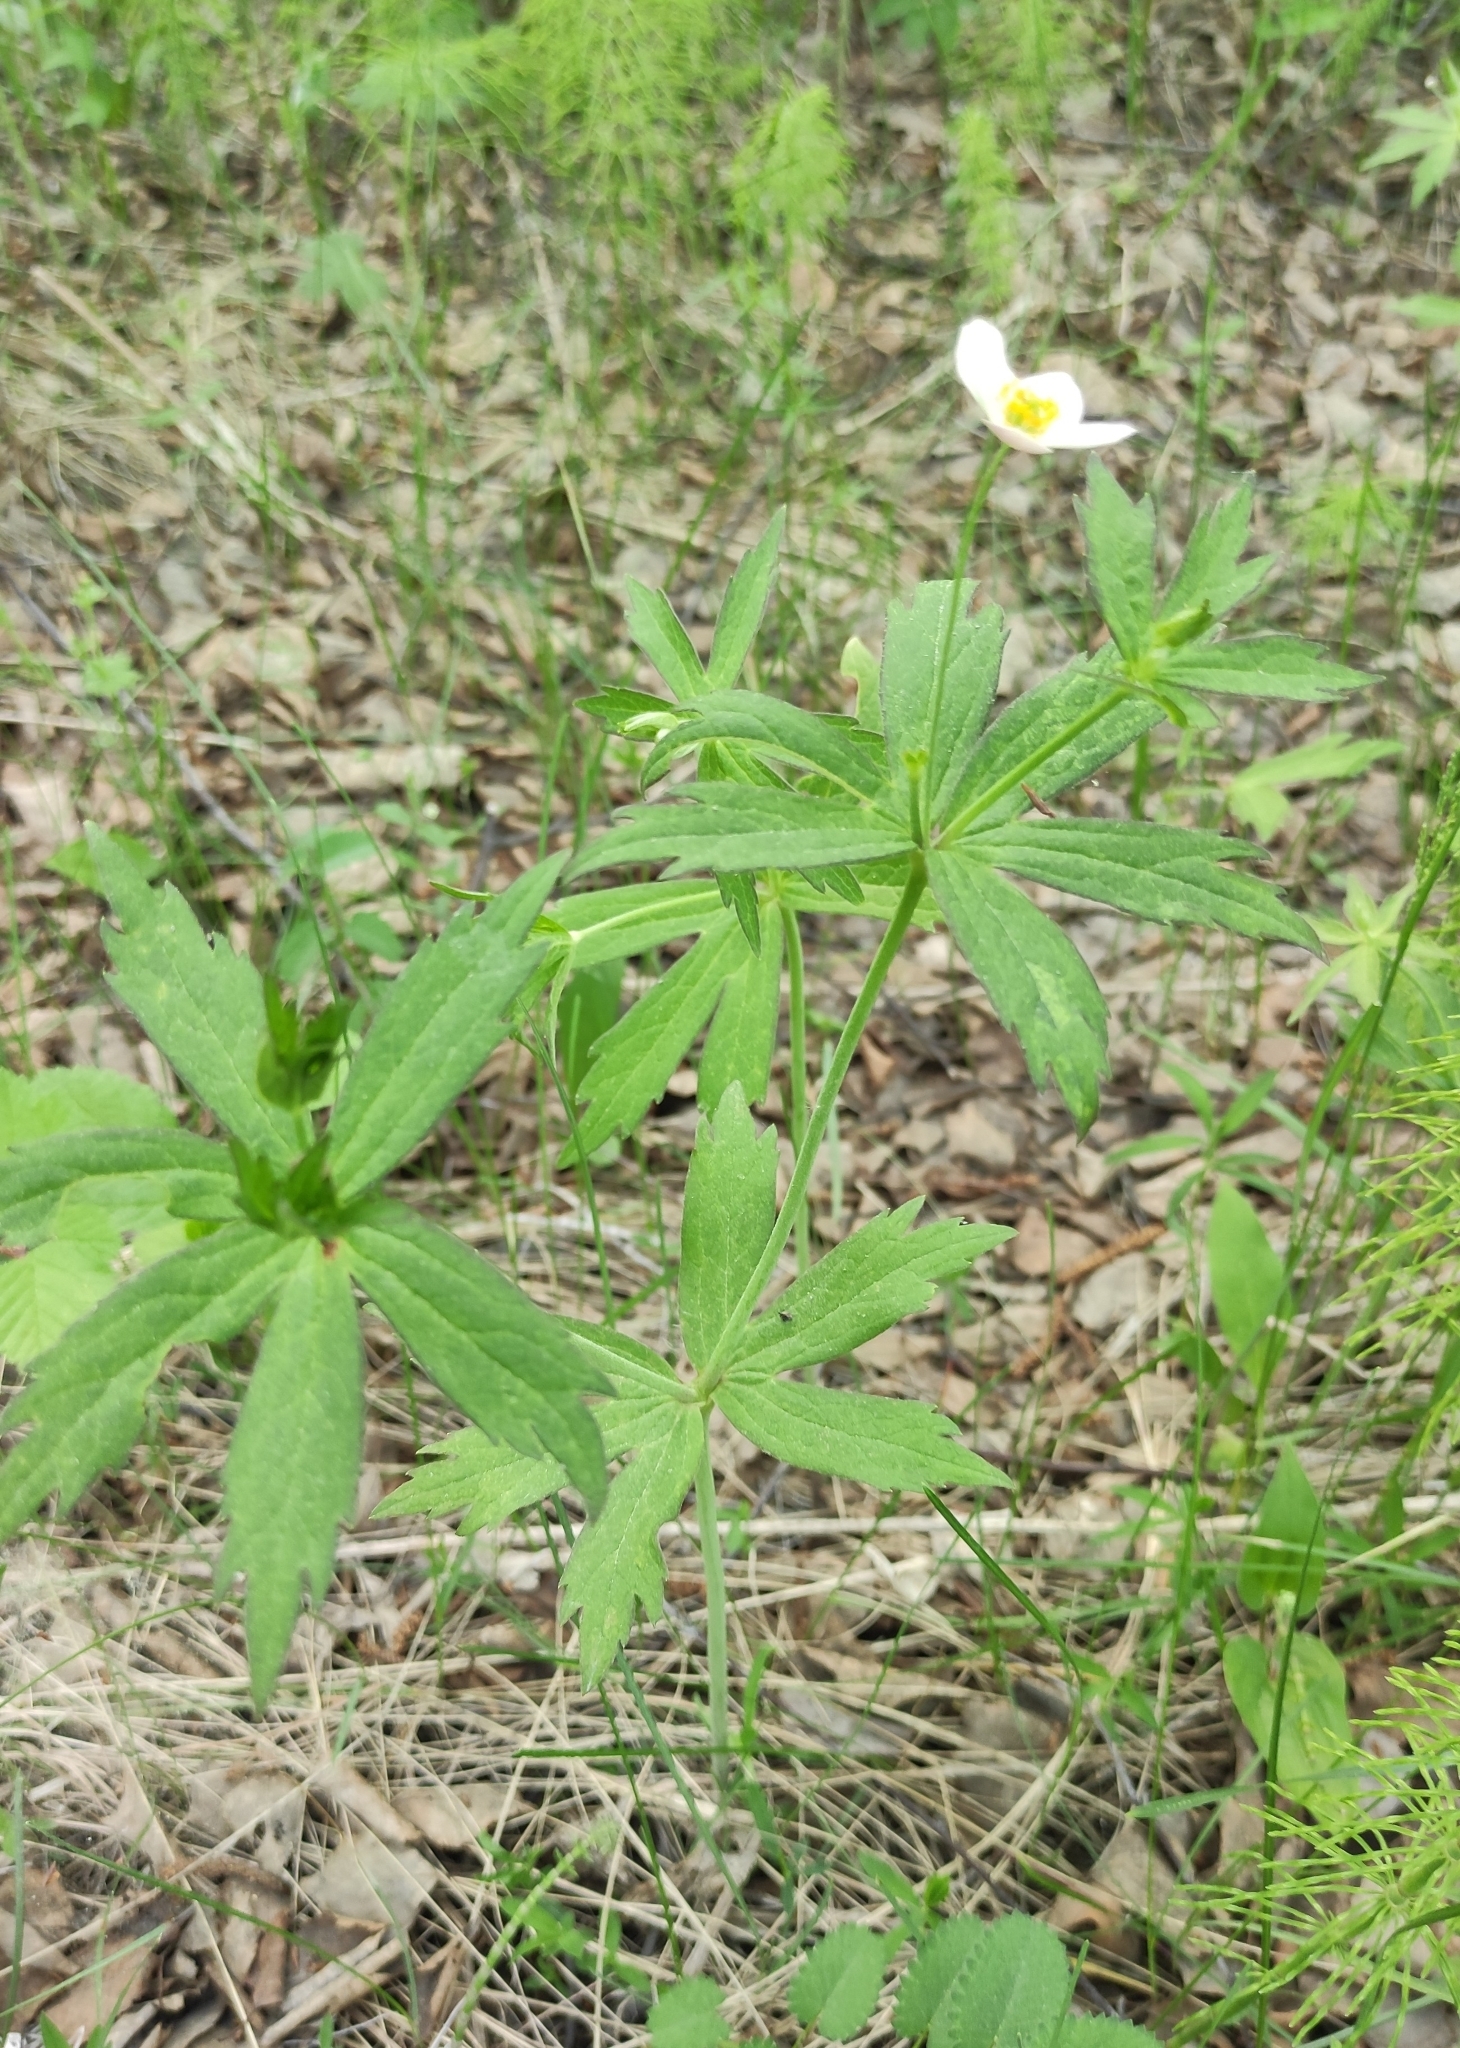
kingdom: Plantae
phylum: Tracheophyta
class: Magnoliopsida
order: Ranunculales
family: Ranunculaceae
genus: Anemonastrum
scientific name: Anemonastrum dichotomum
